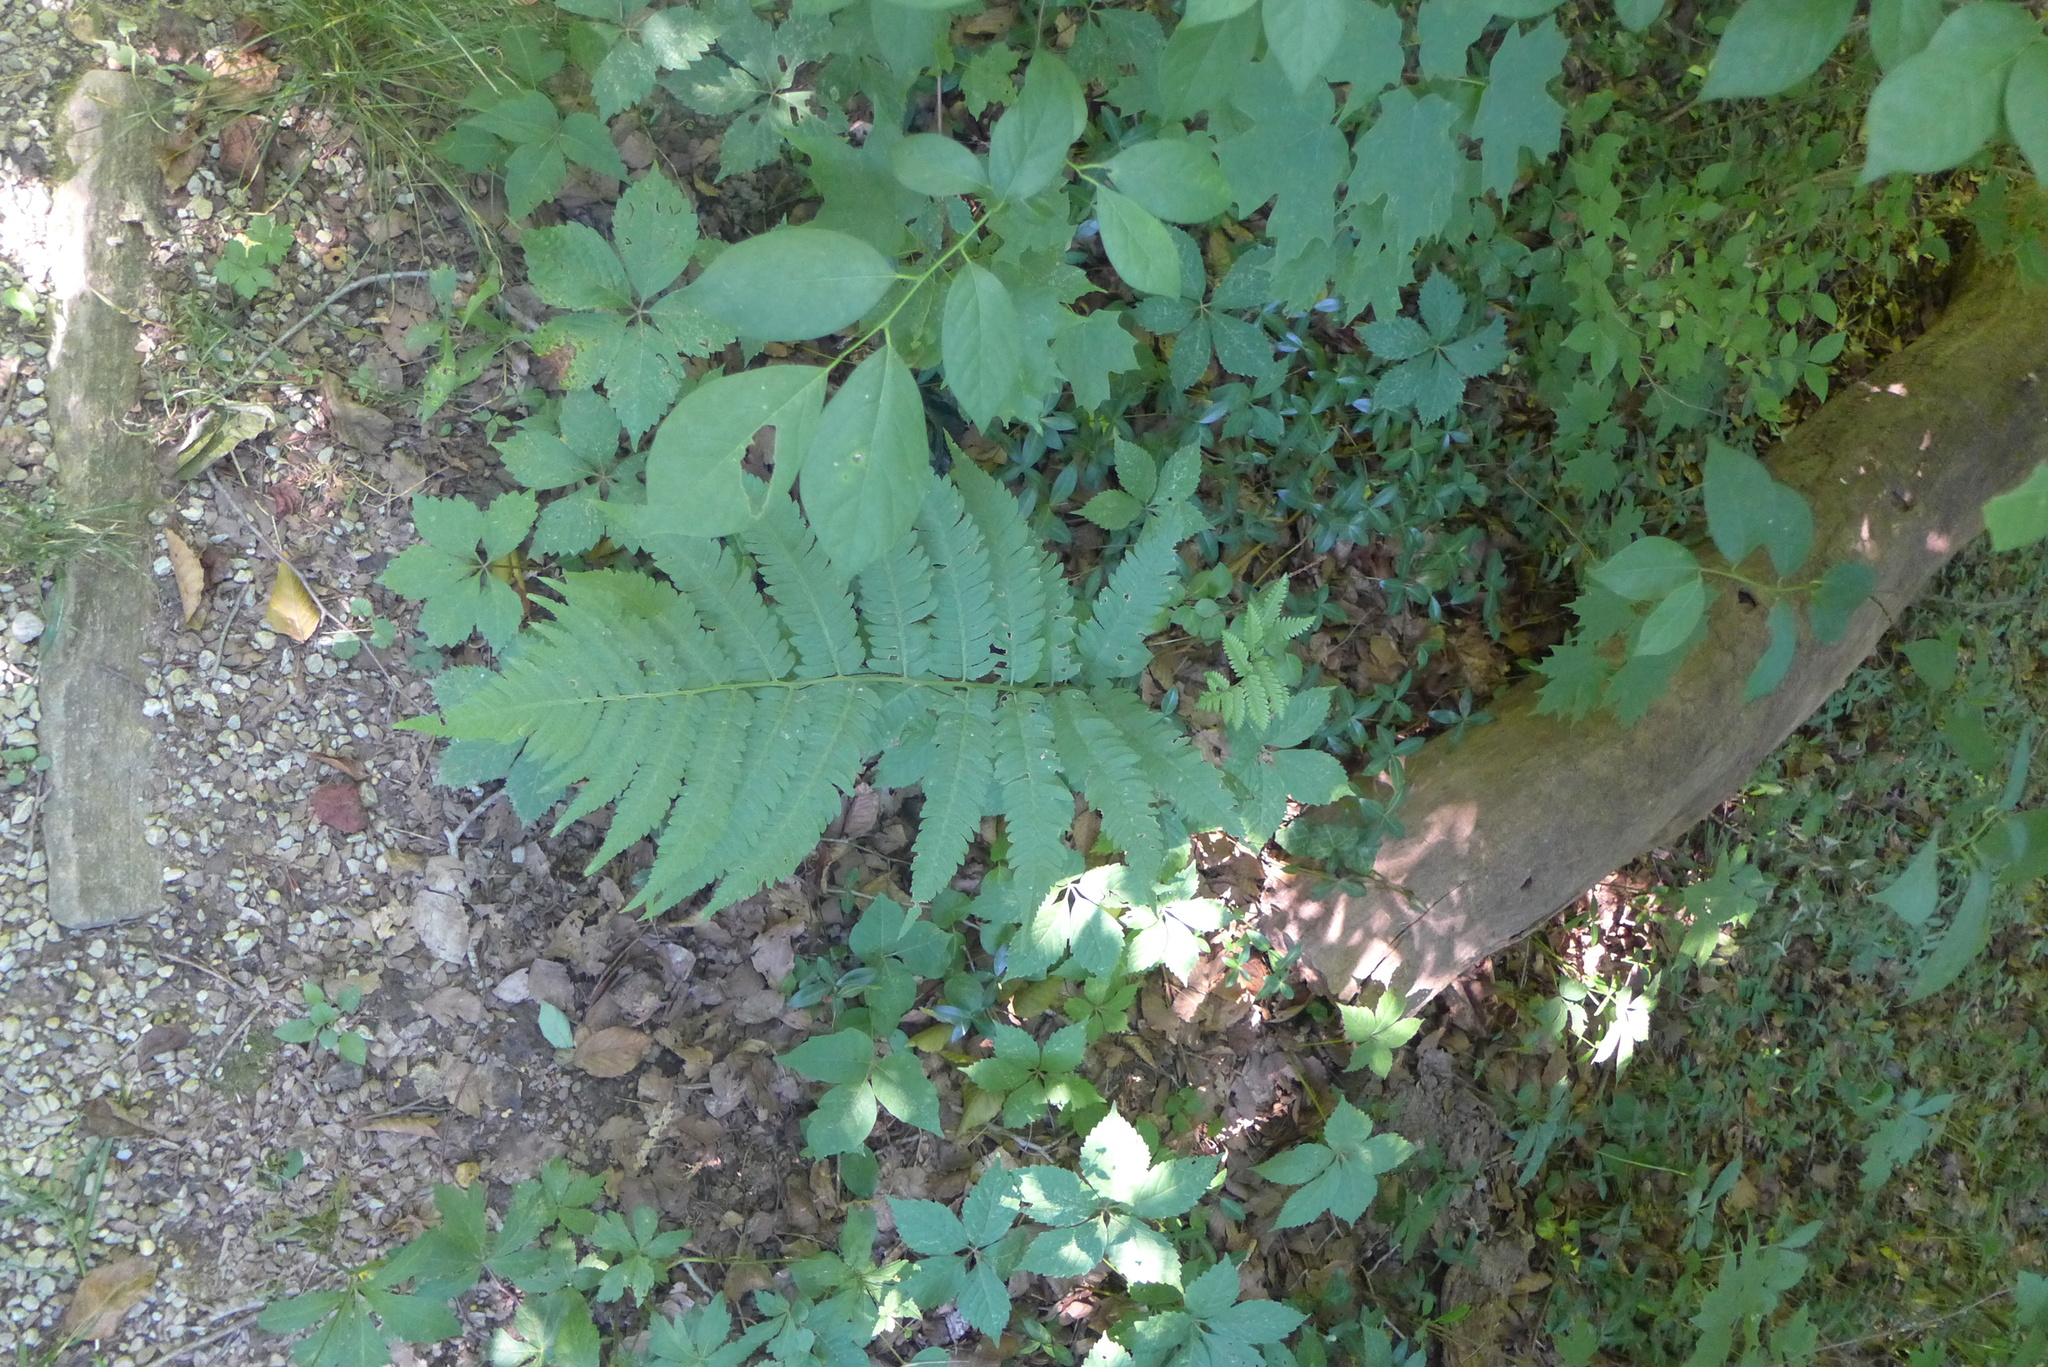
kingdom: Plantae
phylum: Tracheophyta
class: Polypodiopsida
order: Polypodiales
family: Dryopteridaceae
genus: Dryopteris
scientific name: Dryopteris goldieana
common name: Goldie's fern
